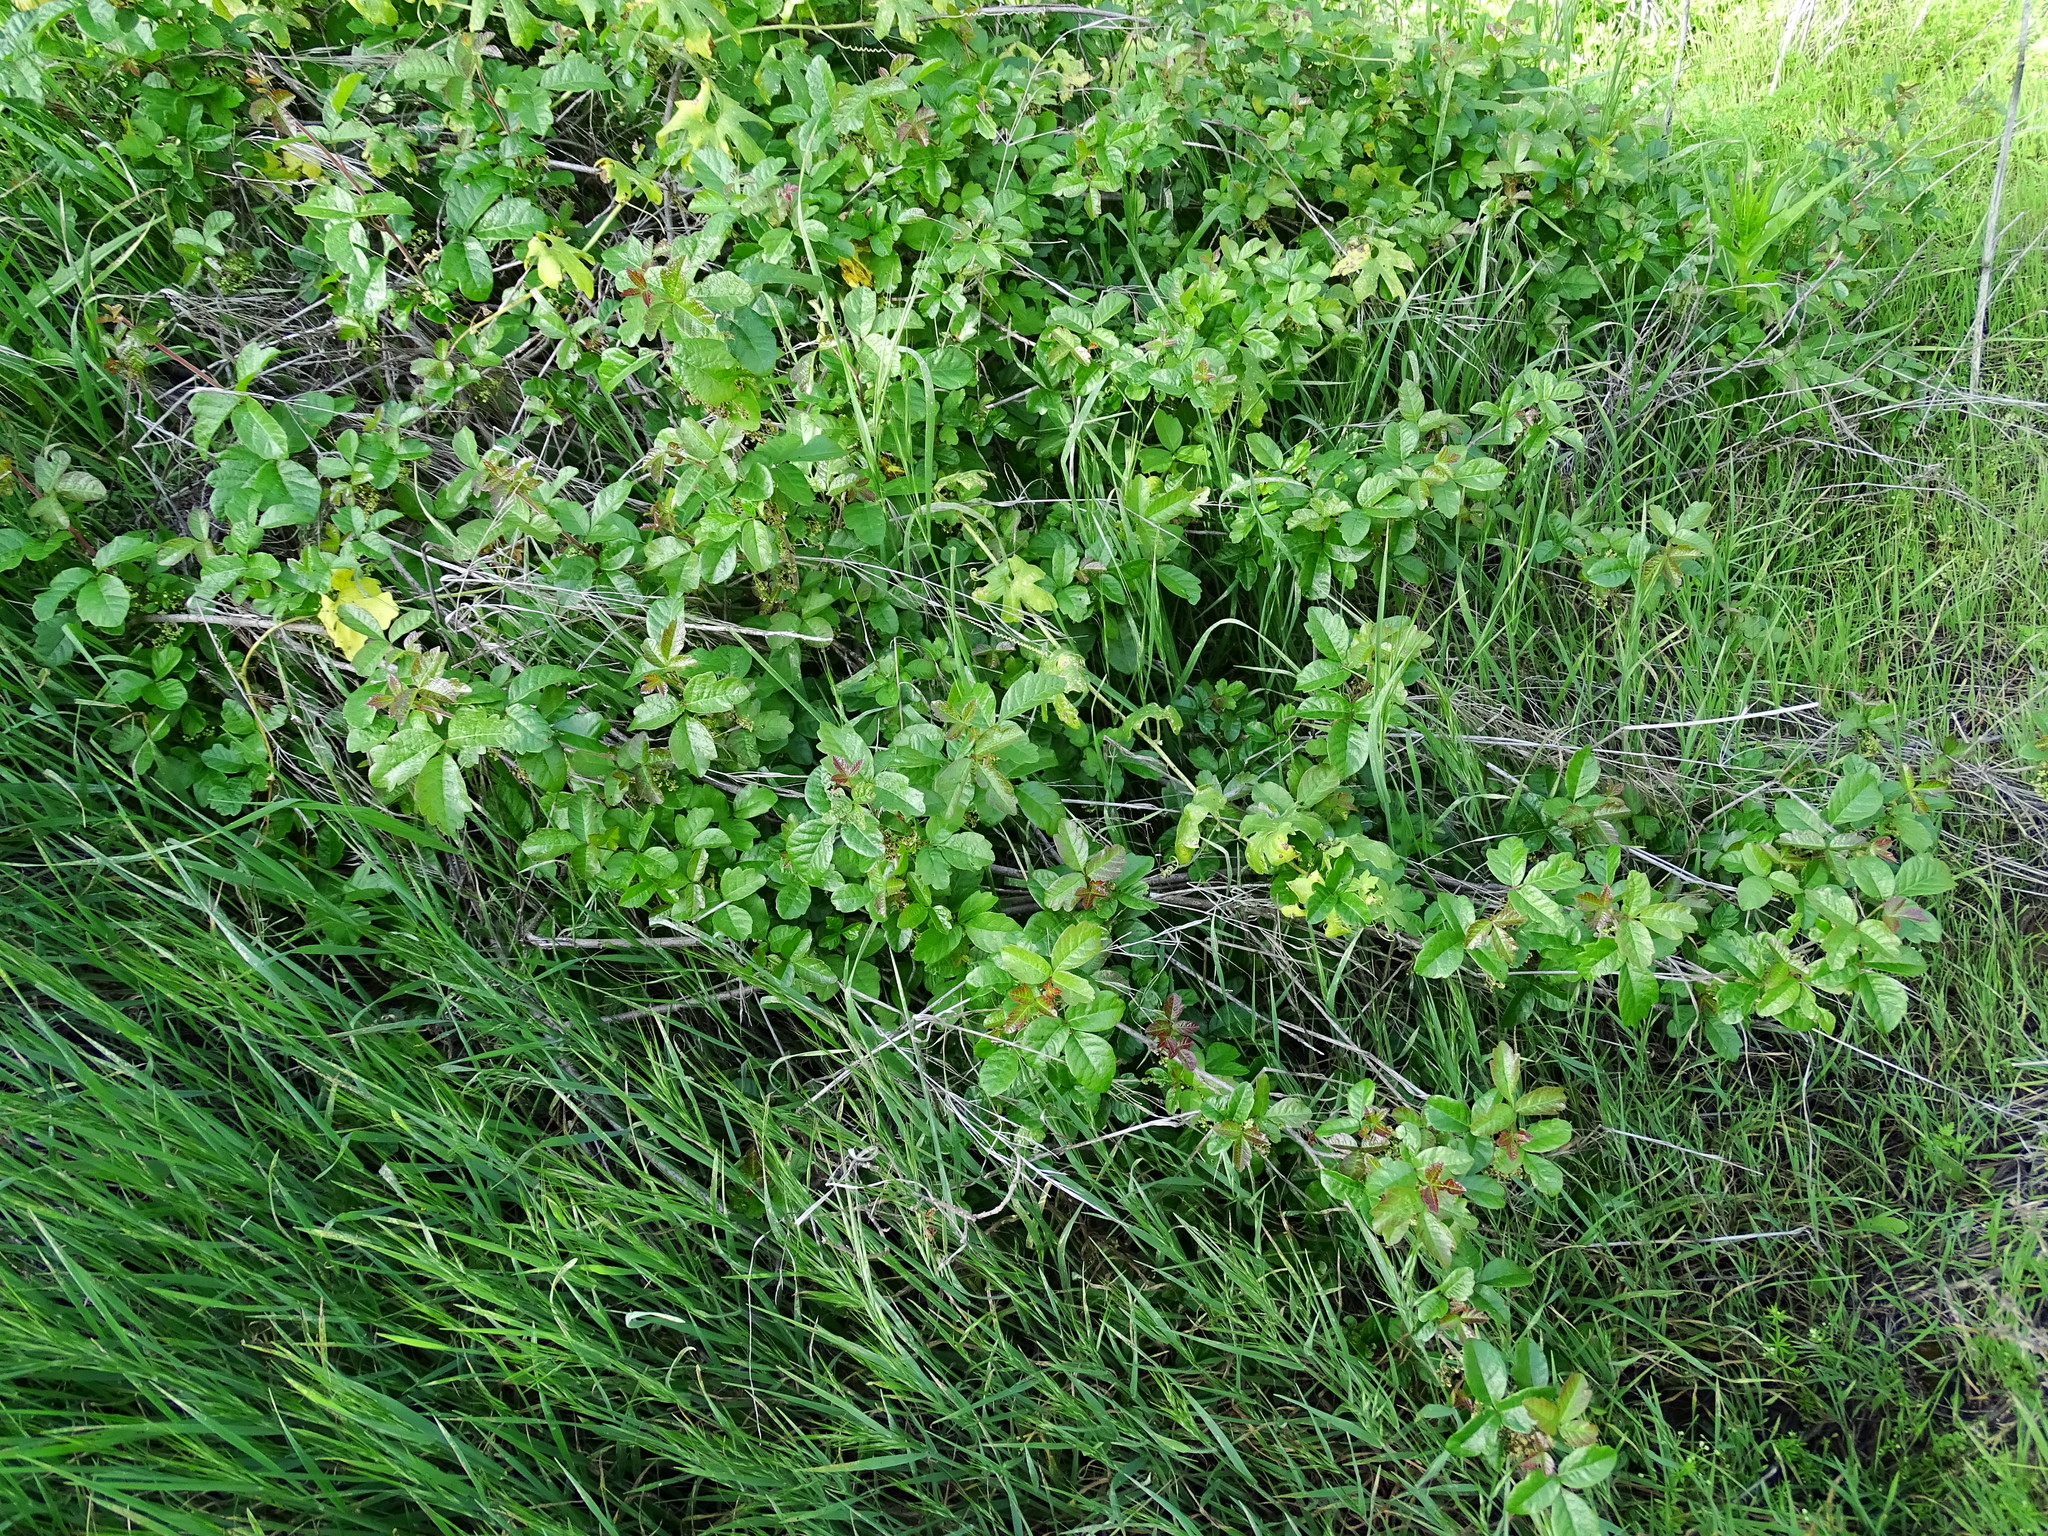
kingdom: Plantae
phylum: Tracheophyta
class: Magnoliopsida
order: Sapindales
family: Anacardiaceae
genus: Toxicodendron
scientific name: Toxicodendron diversilobum
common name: Pacific poison-oak
